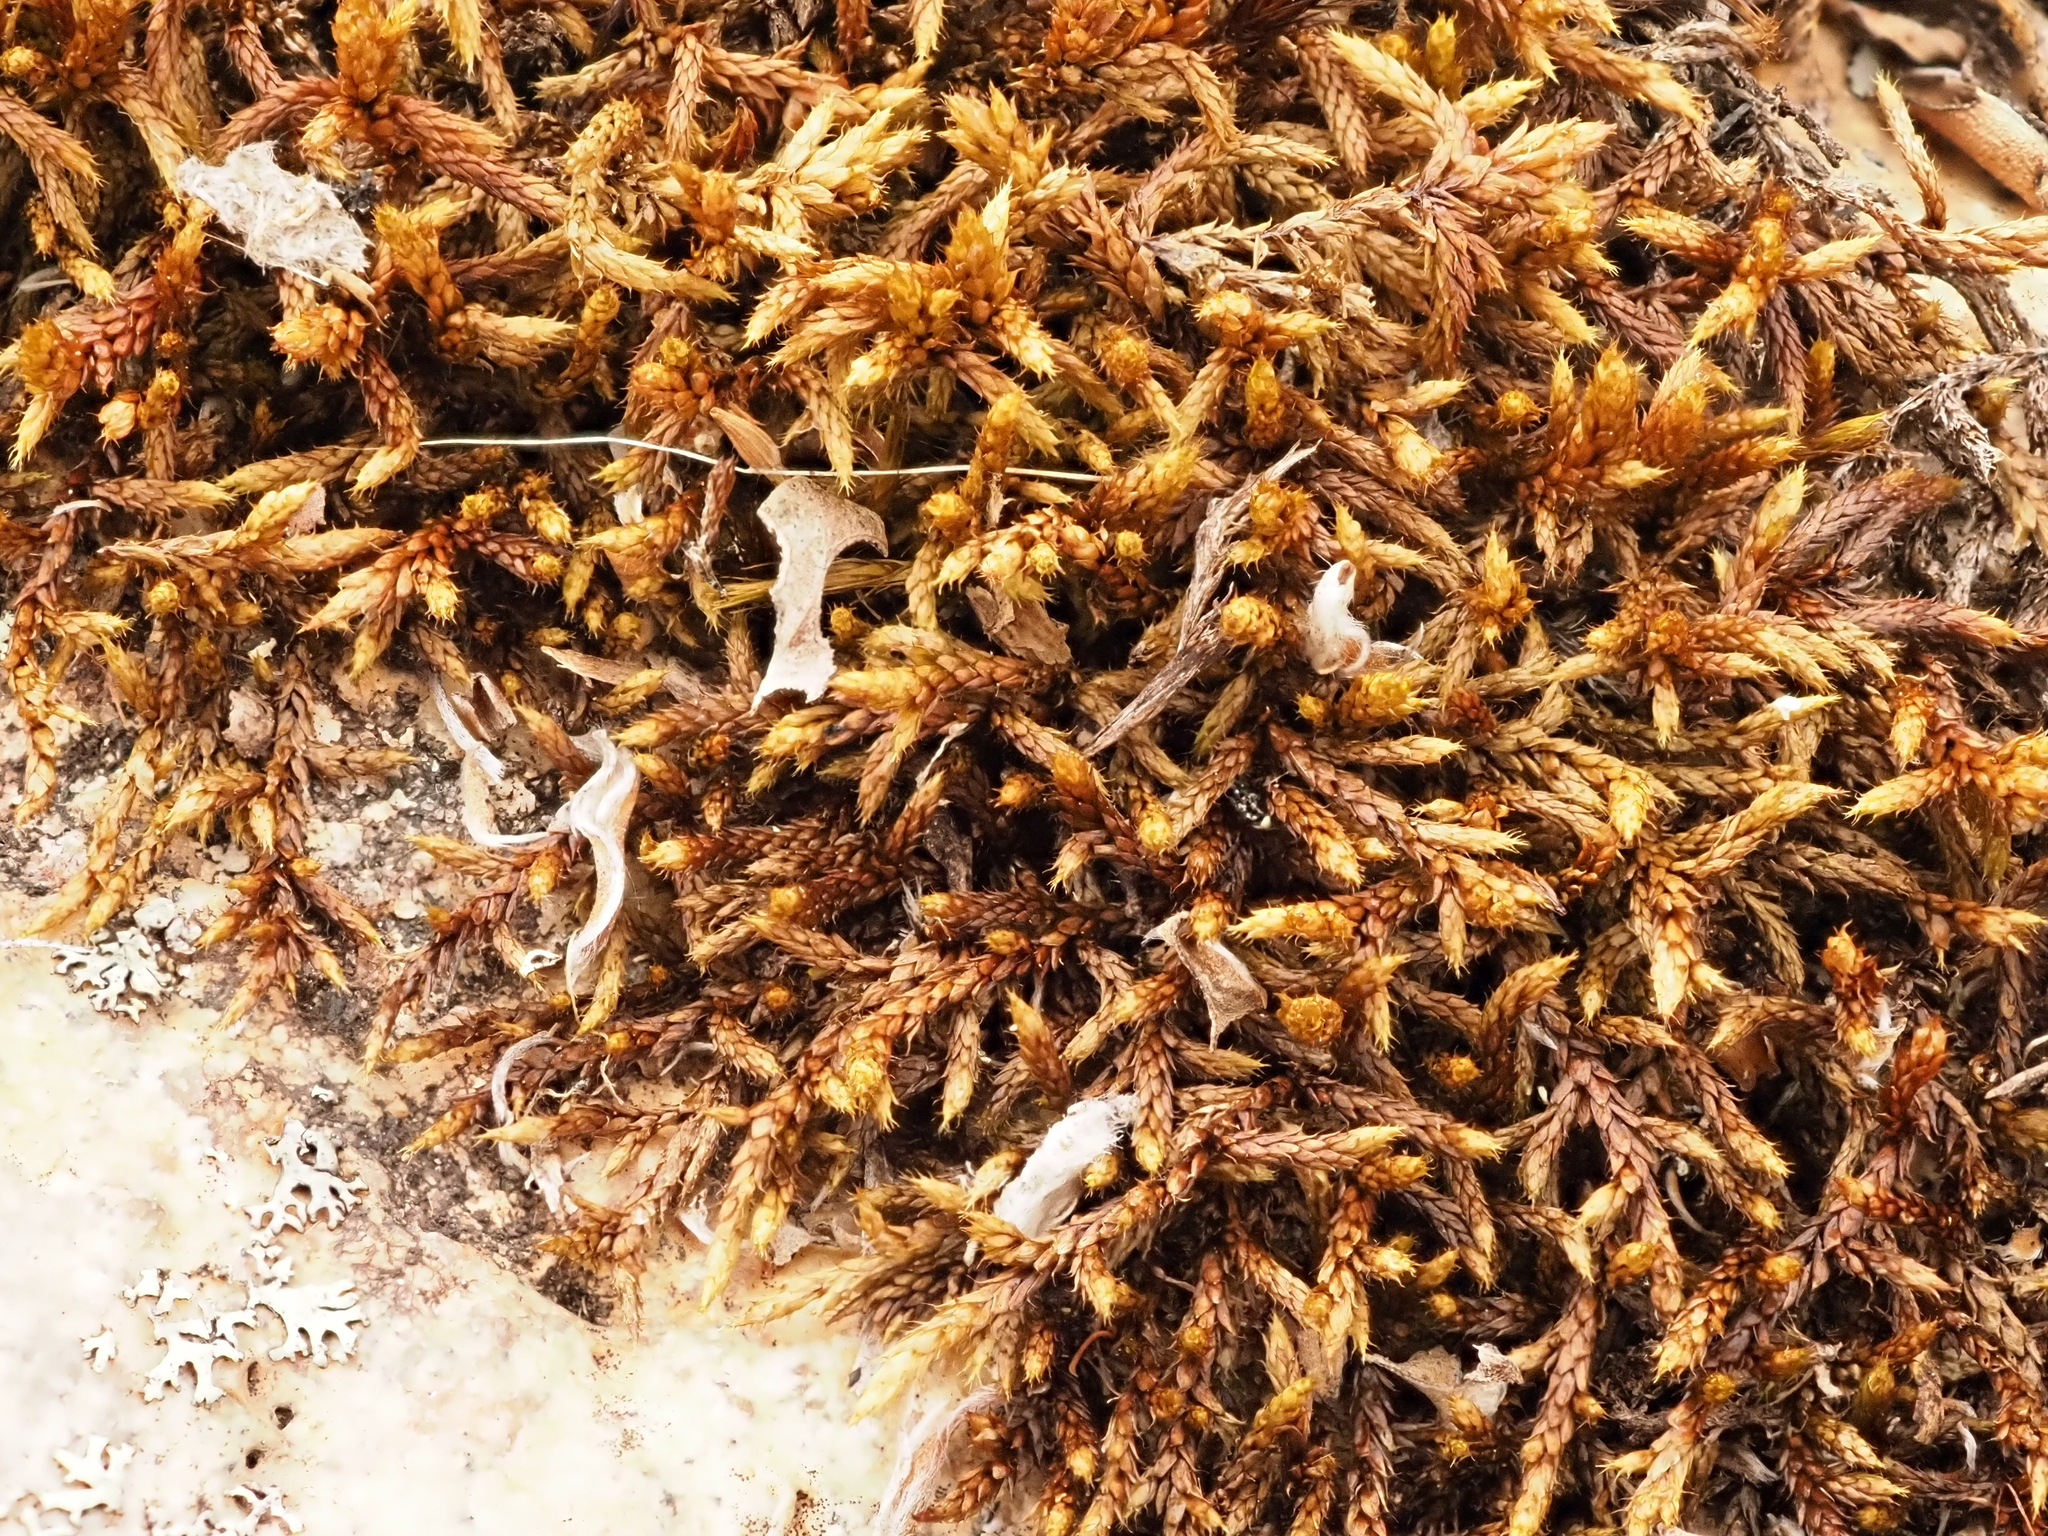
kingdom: Plantae
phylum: Bryophyta
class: Bryopsida
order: Hedwigiales
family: Hedwigiaceae
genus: Rhacocarpus
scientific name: Rhacocarpus purpurascens
